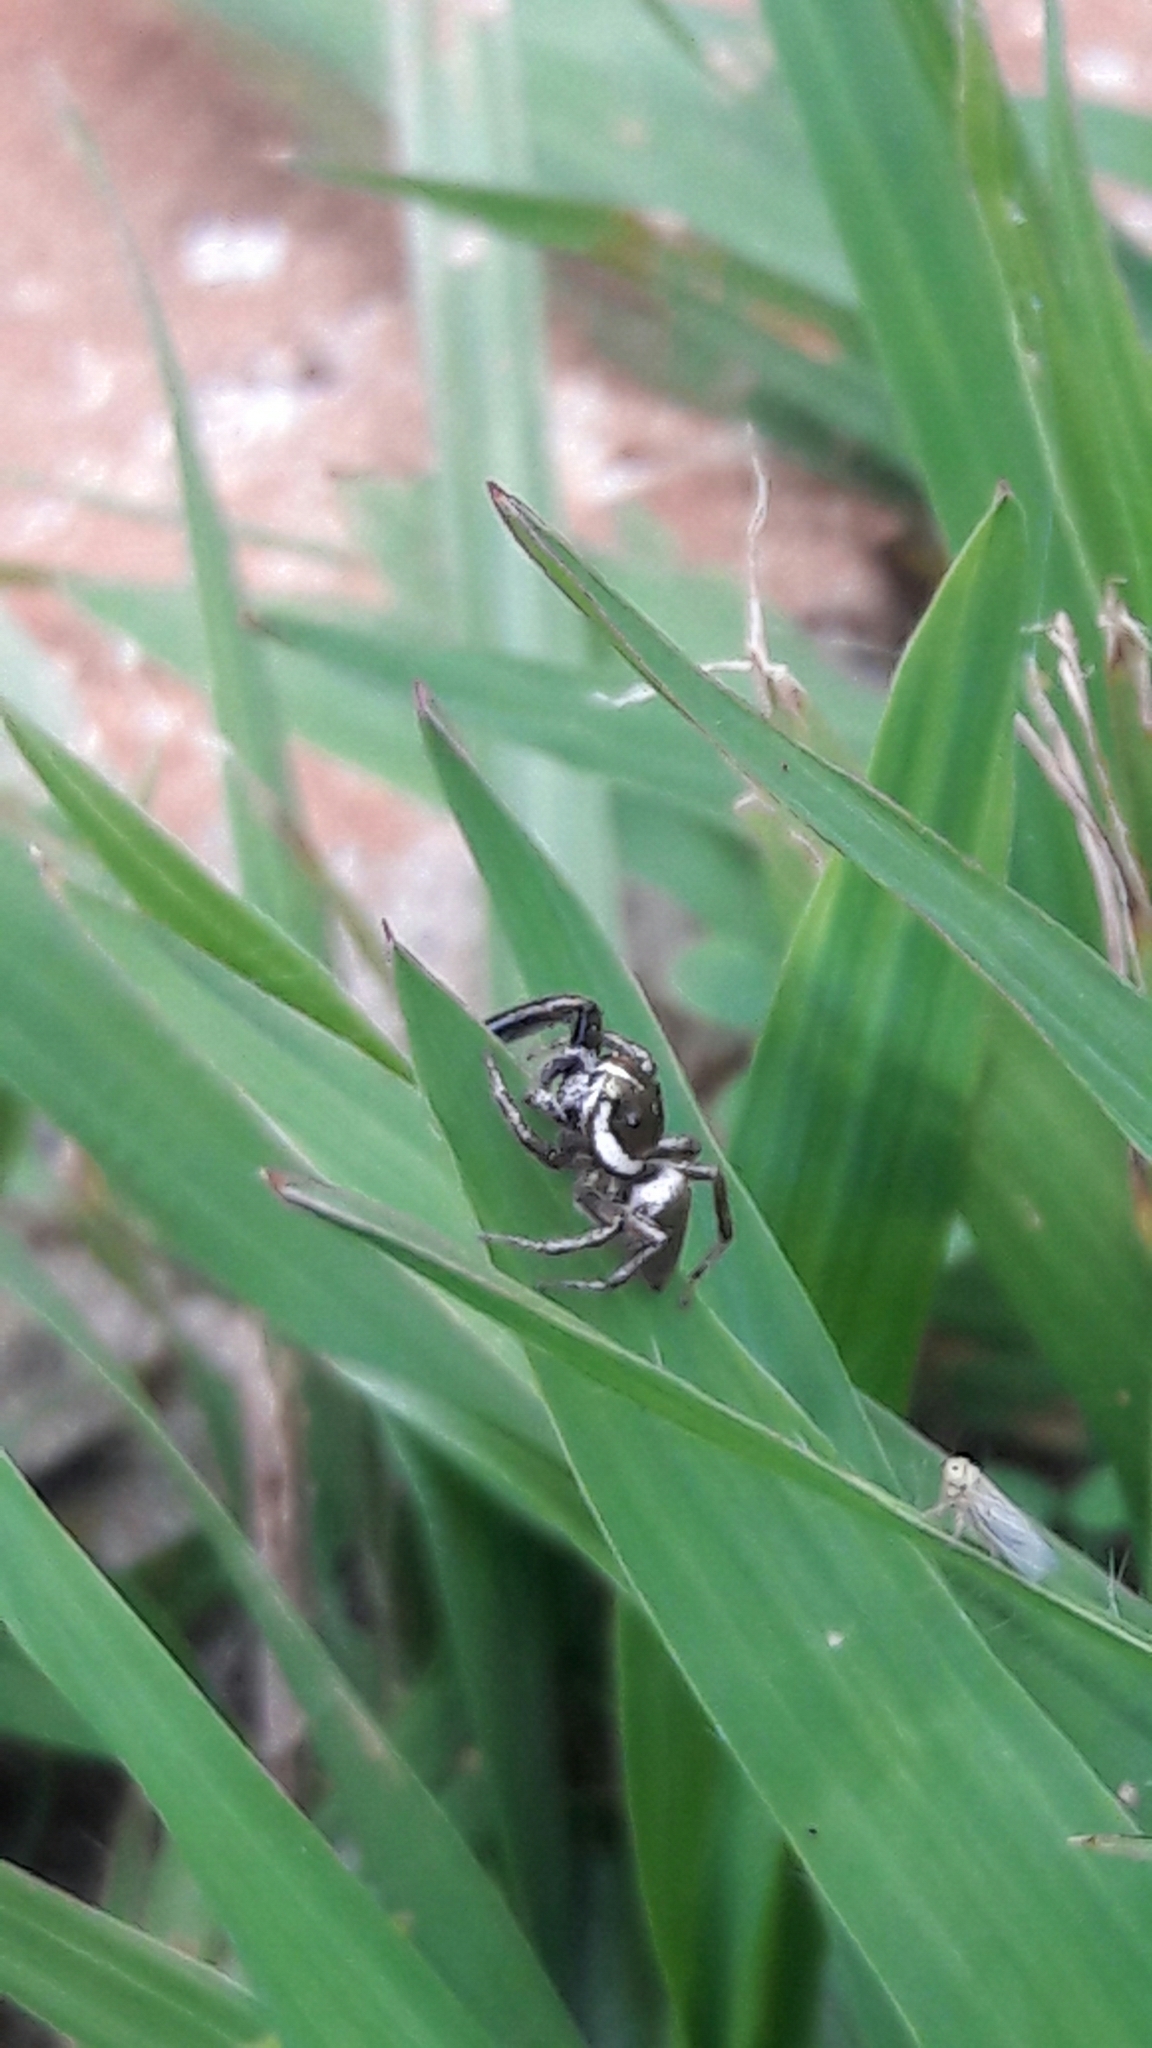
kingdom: Animalia
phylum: Arthropoda
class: Arachnida
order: Araneae
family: Salticidae
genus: Philira
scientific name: Philira micans
